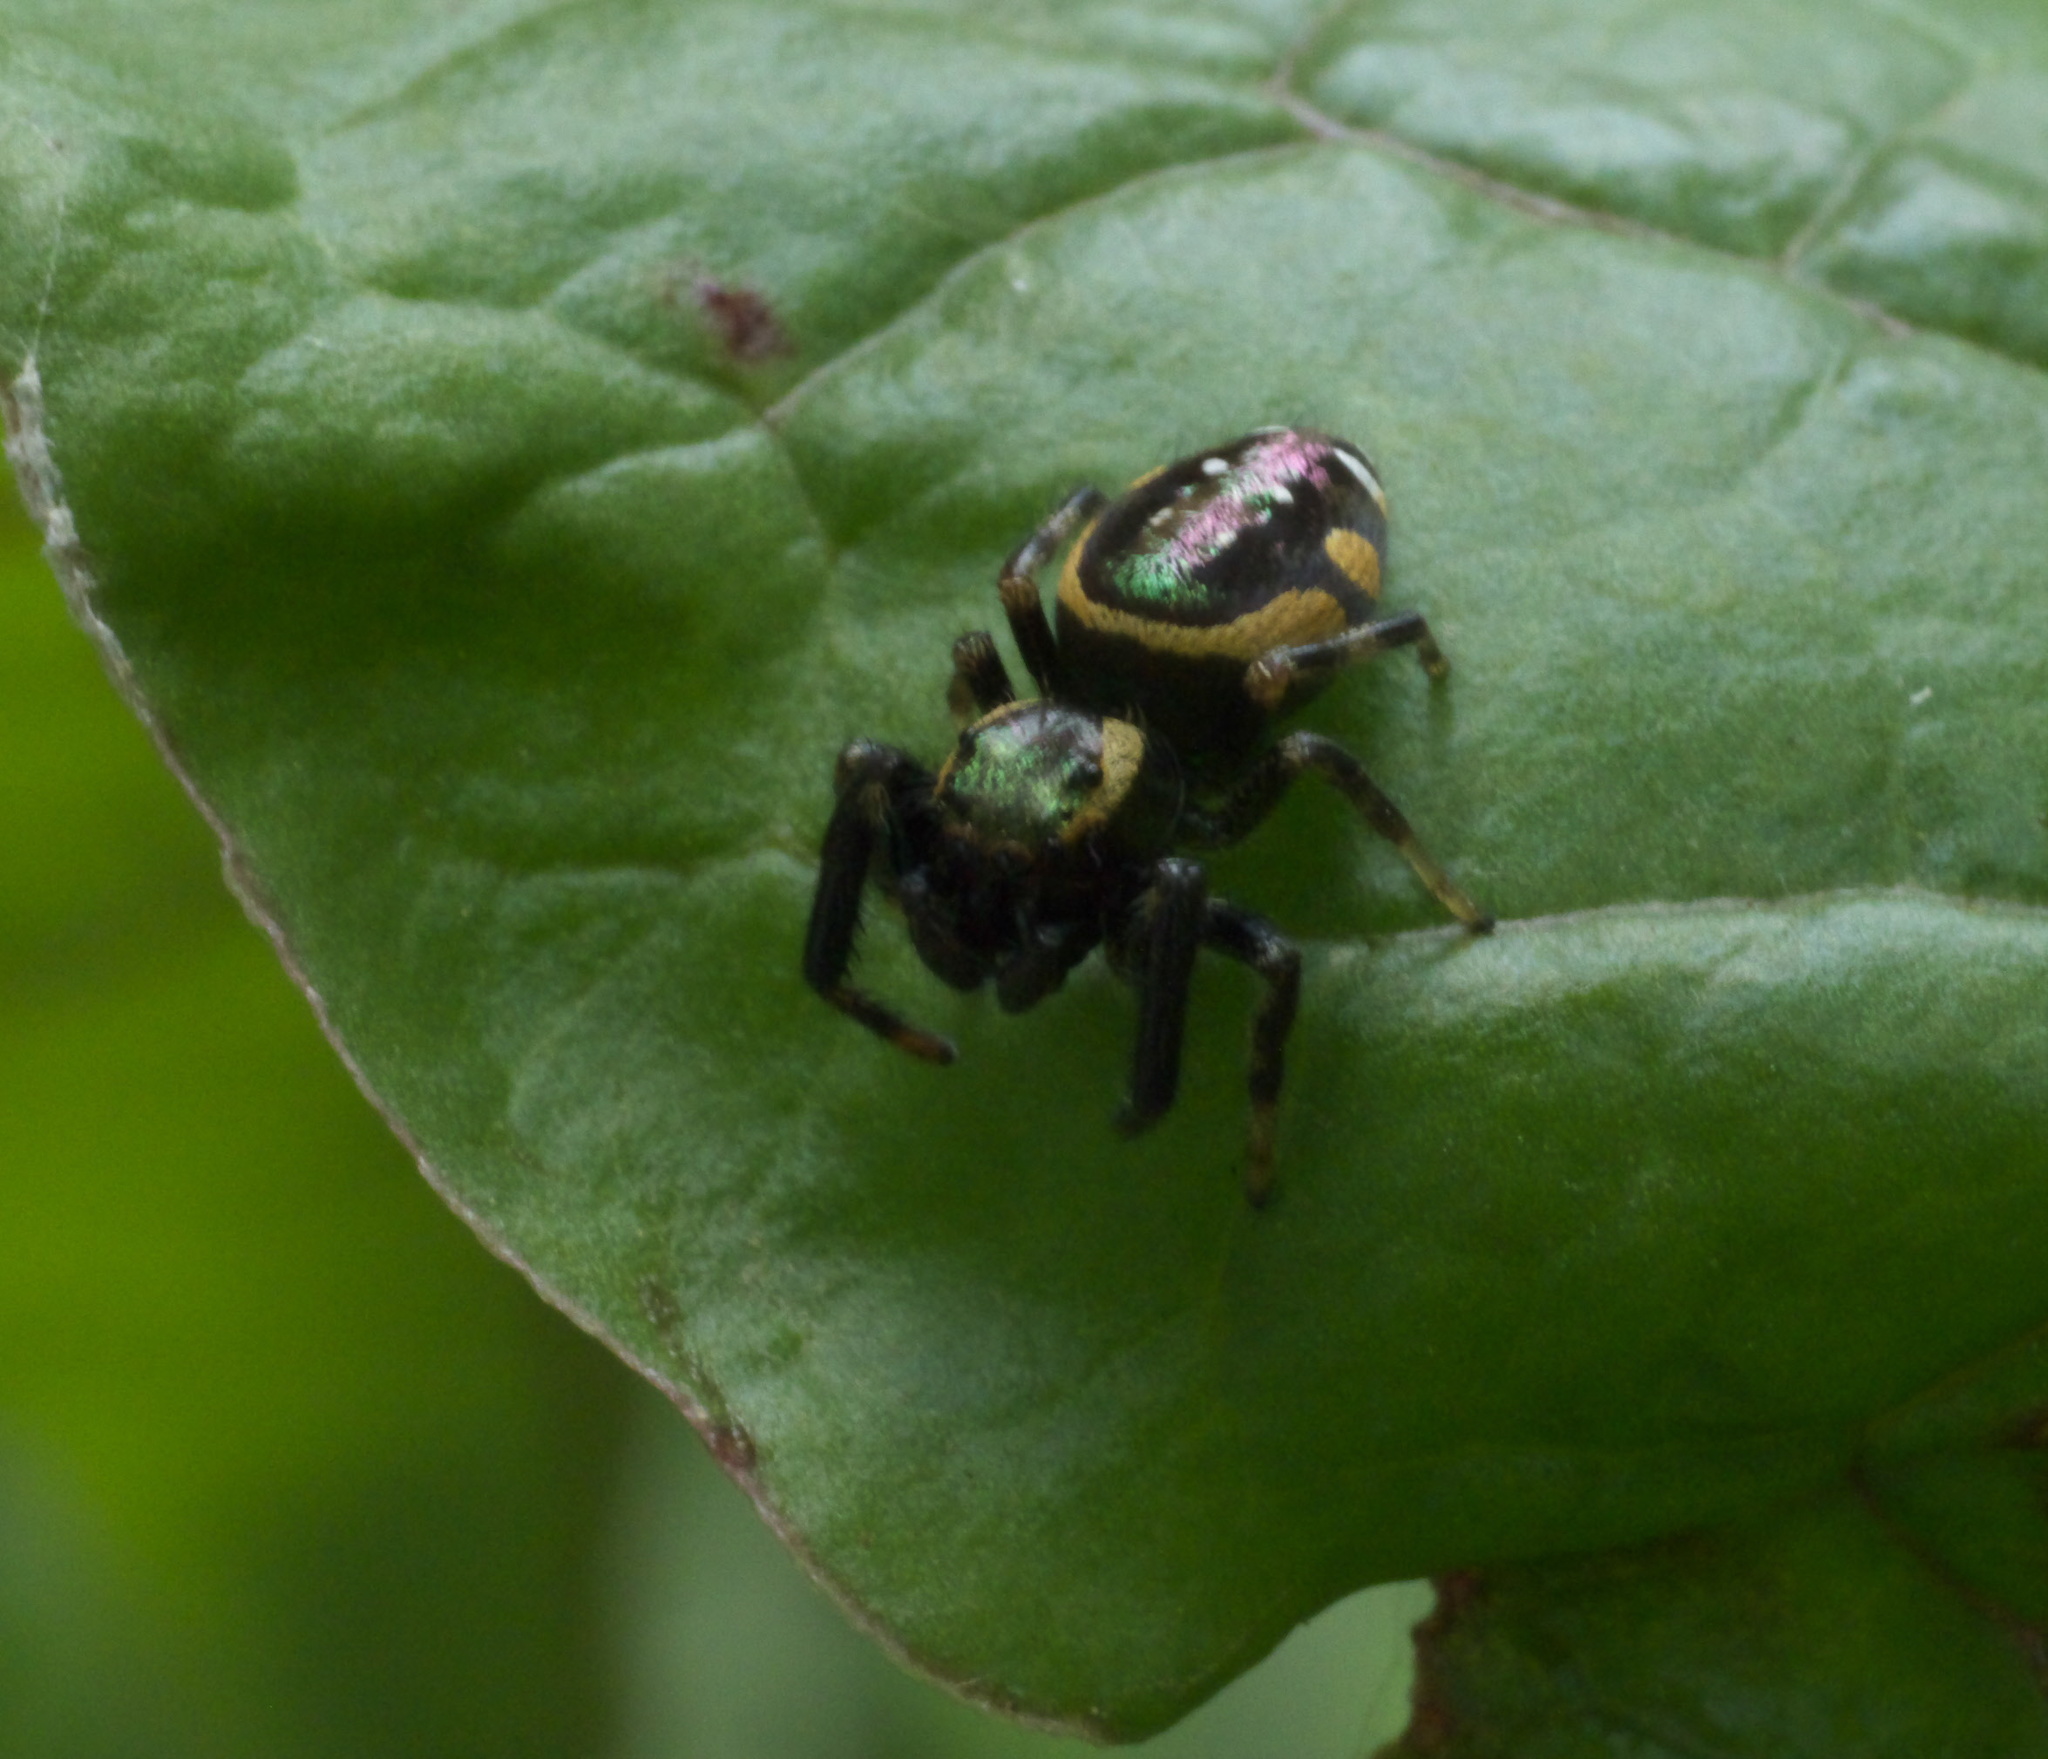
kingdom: Animalia
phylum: Arthropoda
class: Arachnida
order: Araneae
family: Salticidae
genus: Paraphidippus
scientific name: Paraphidippus aurantius
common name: Jumping spiders
